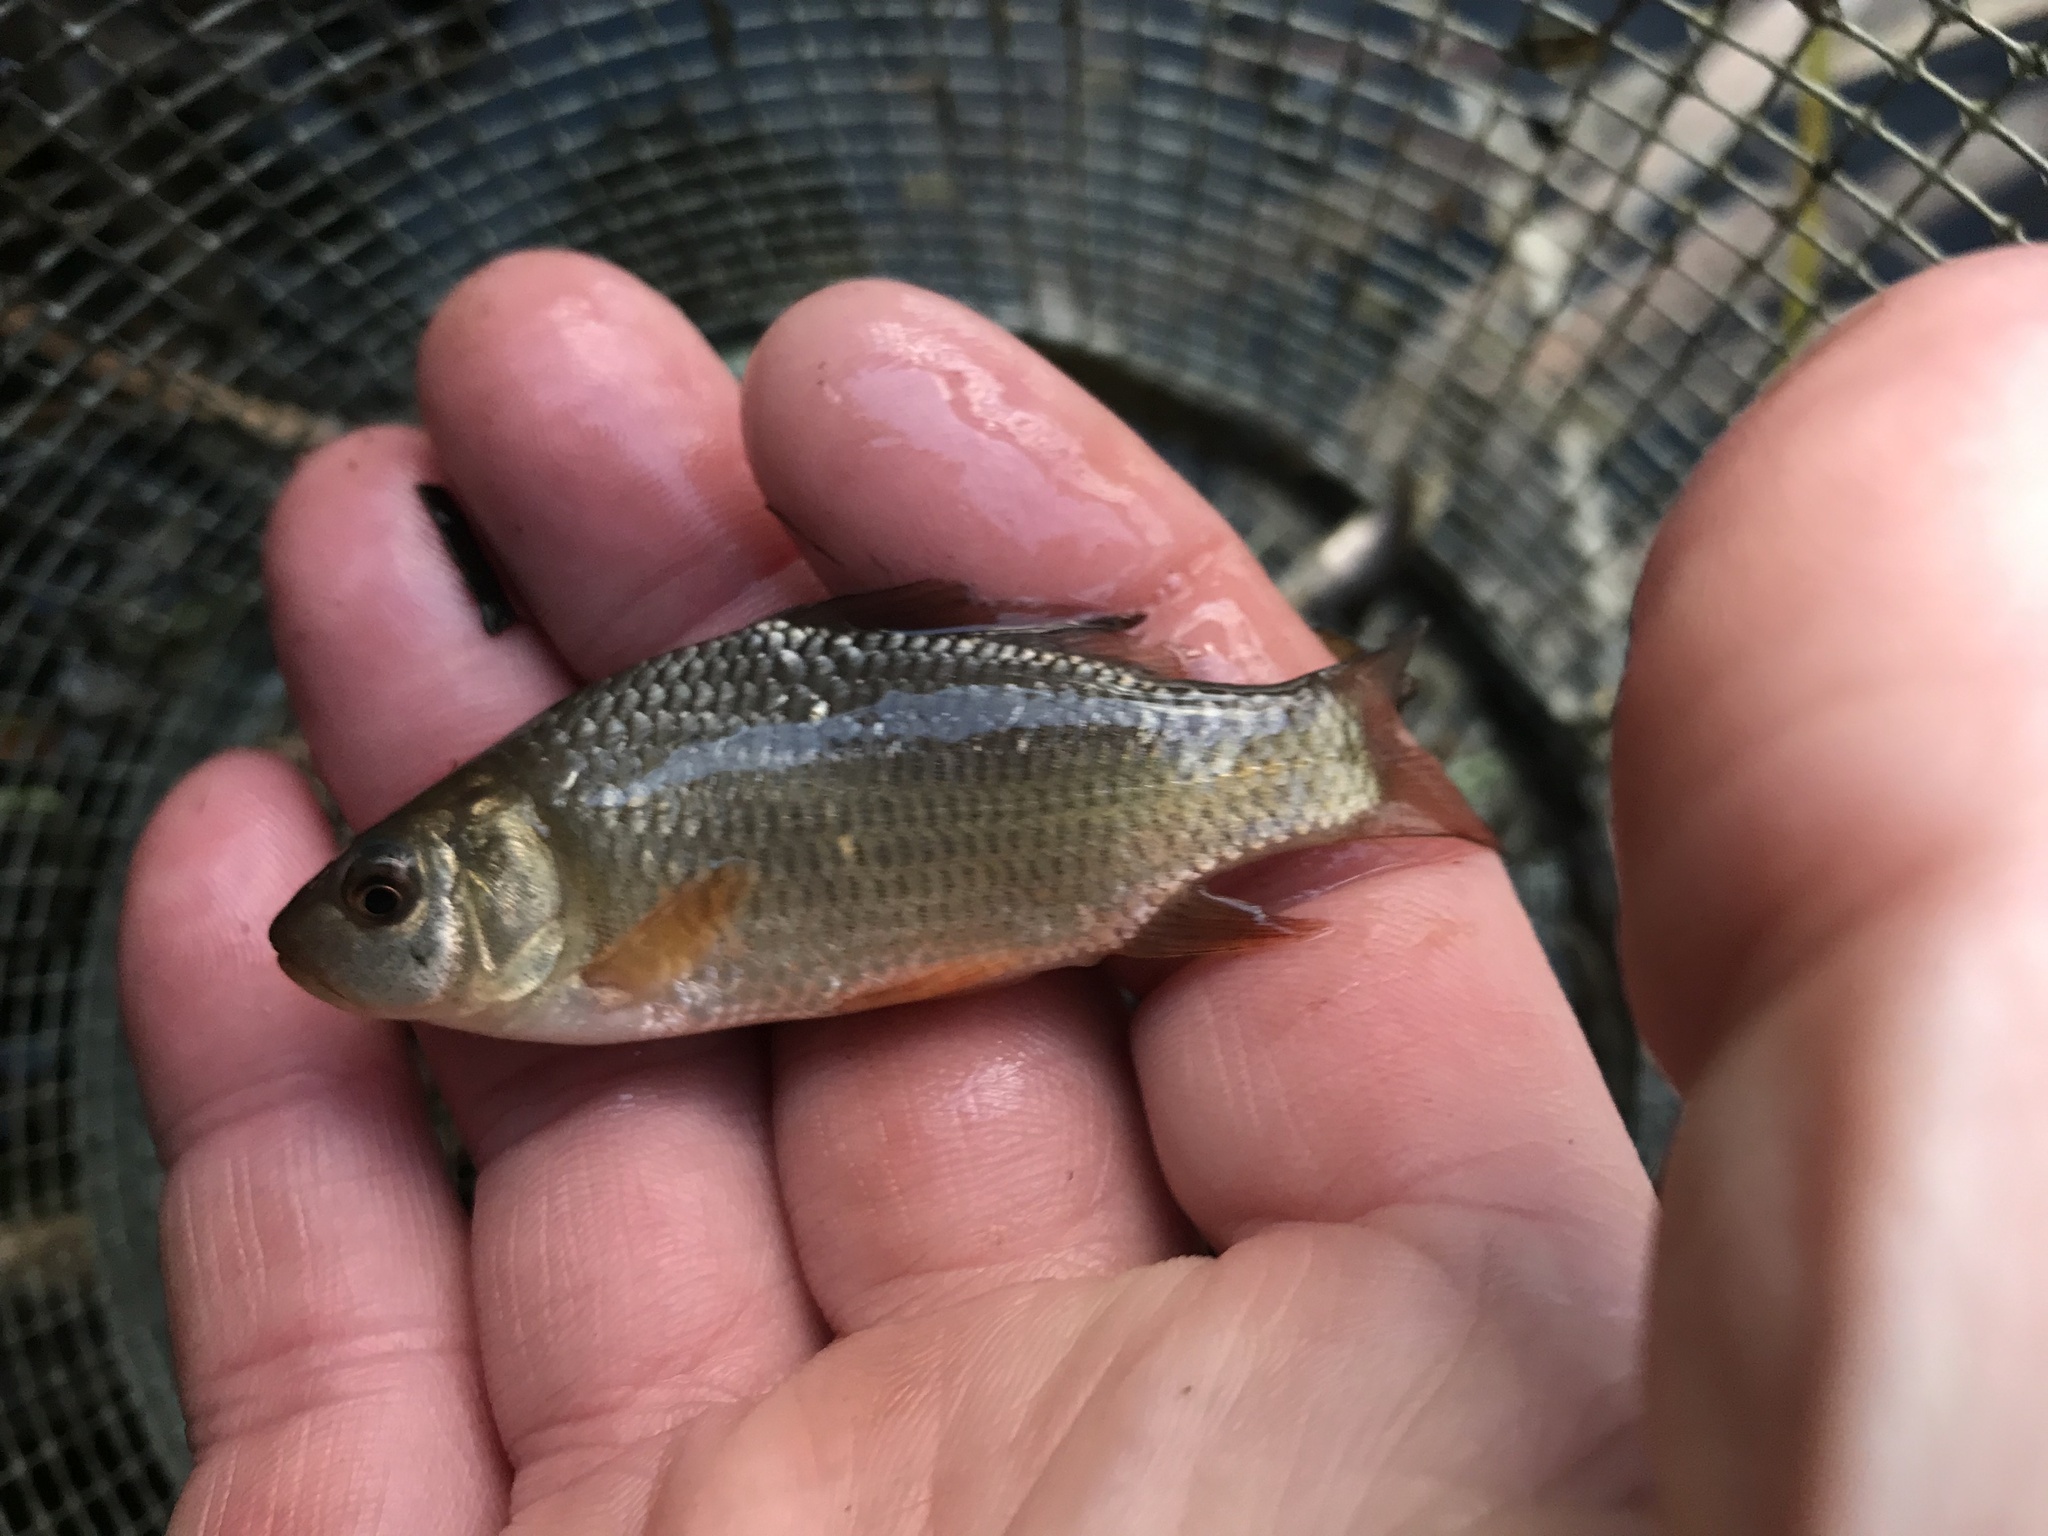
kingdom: Animalia
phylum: Chordata
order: Cypriniformes
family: Cyprinidae
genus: Cyprinus
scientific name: Cyprinus carpio
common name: Common carp
